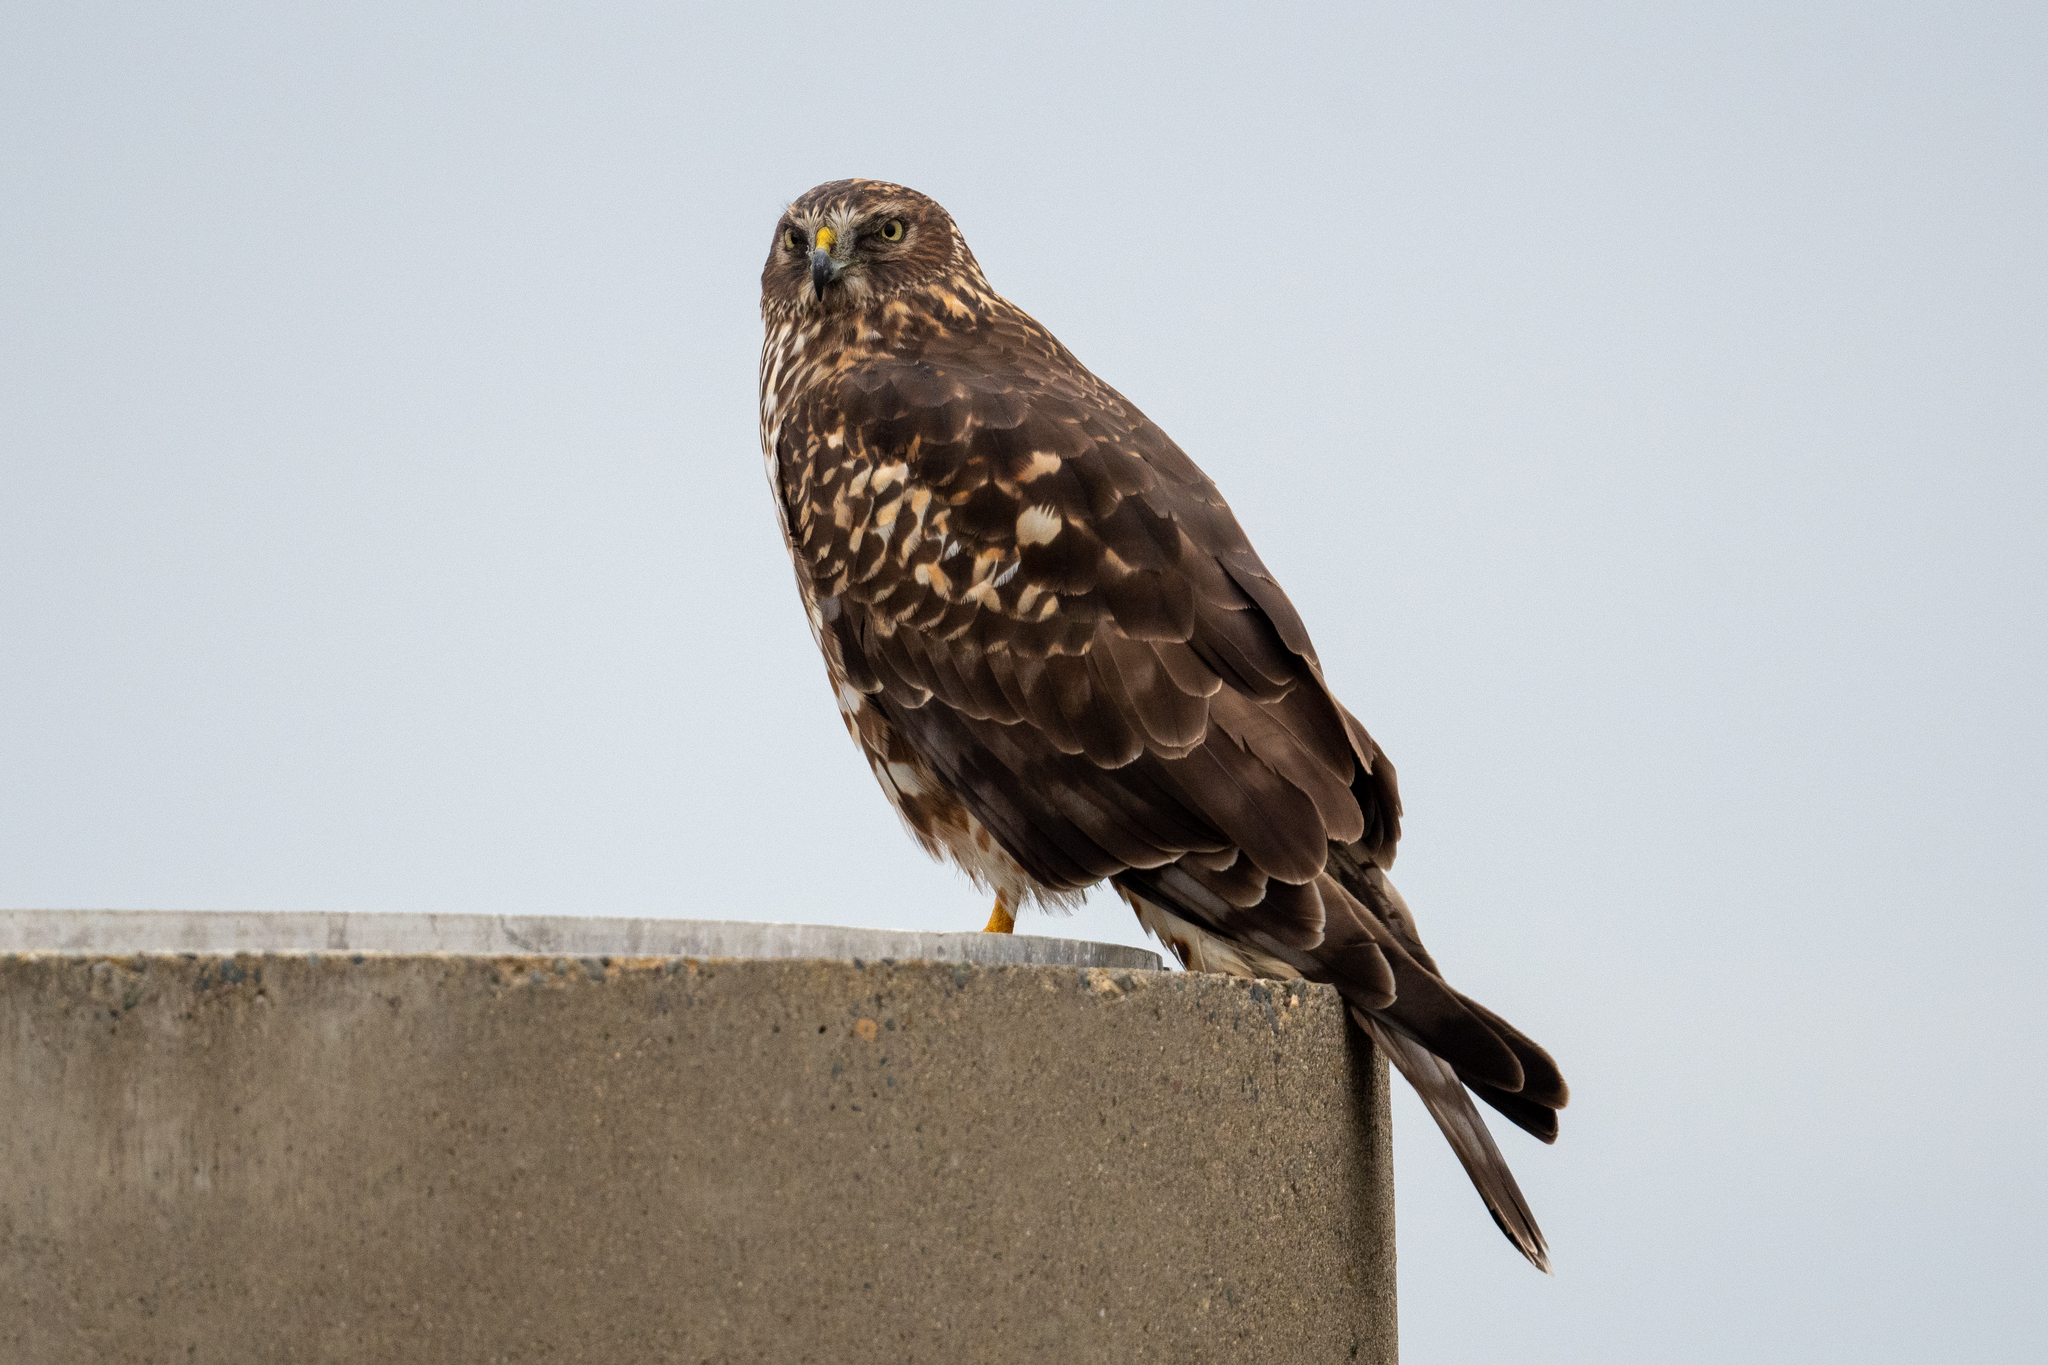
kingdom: Animalia
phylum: Chordata
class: Aves
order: Accipitriformes
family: Accipitridae
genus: Circus
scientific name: Circus cyaneus
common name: Hen harrier
